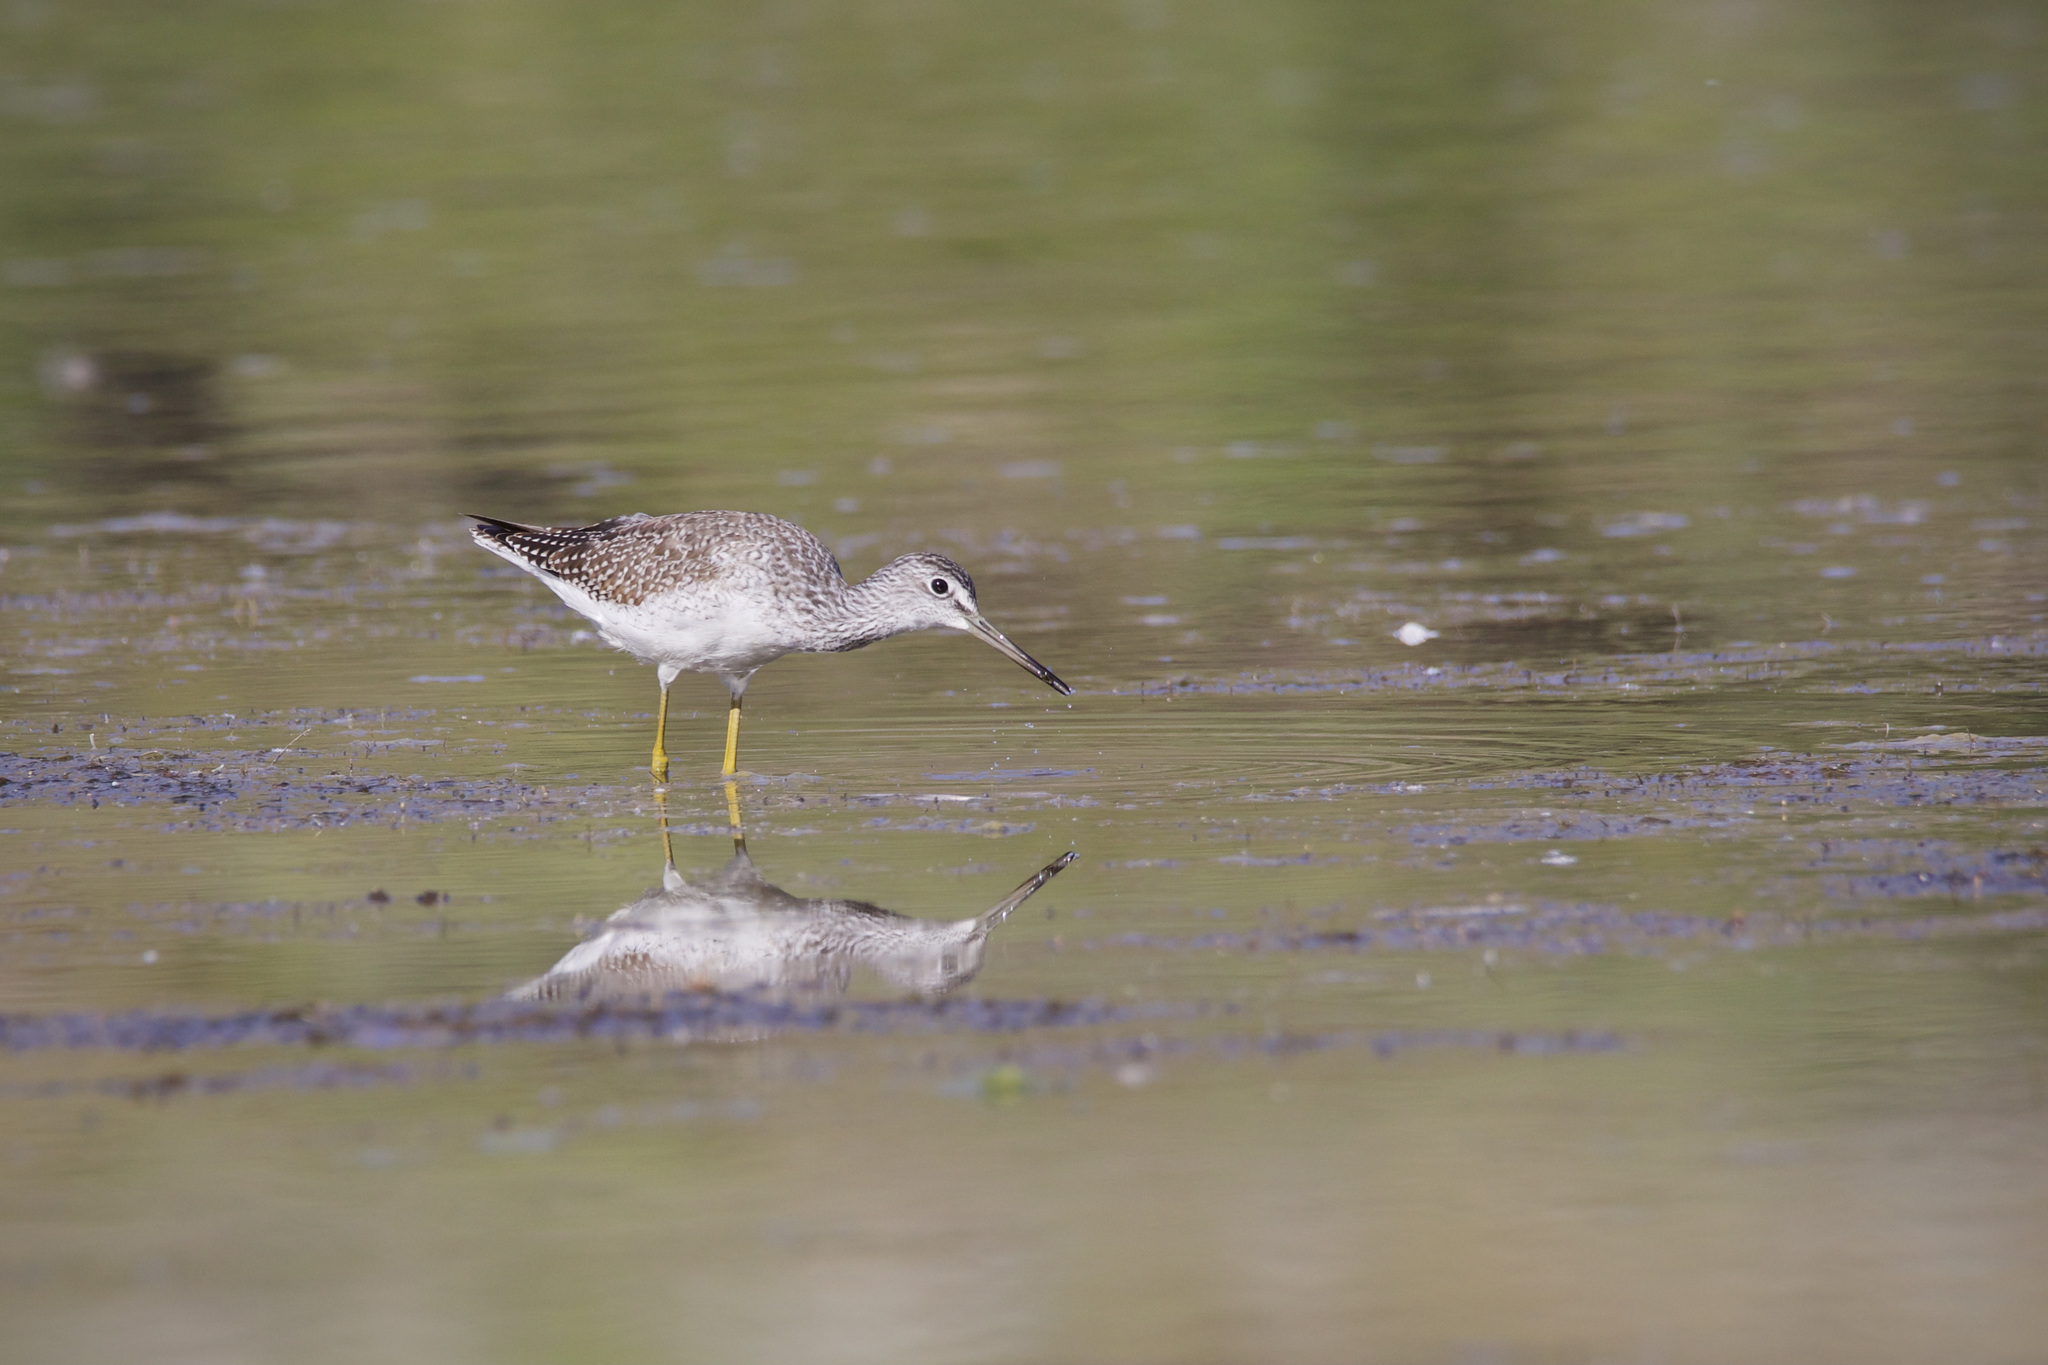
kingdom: Animalia
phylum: Chordata
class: Aves
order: Charadriiformes
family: Scolopacidae
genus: Tringa
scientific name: Tringa melanoleuca
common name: Greater yellowlegs
